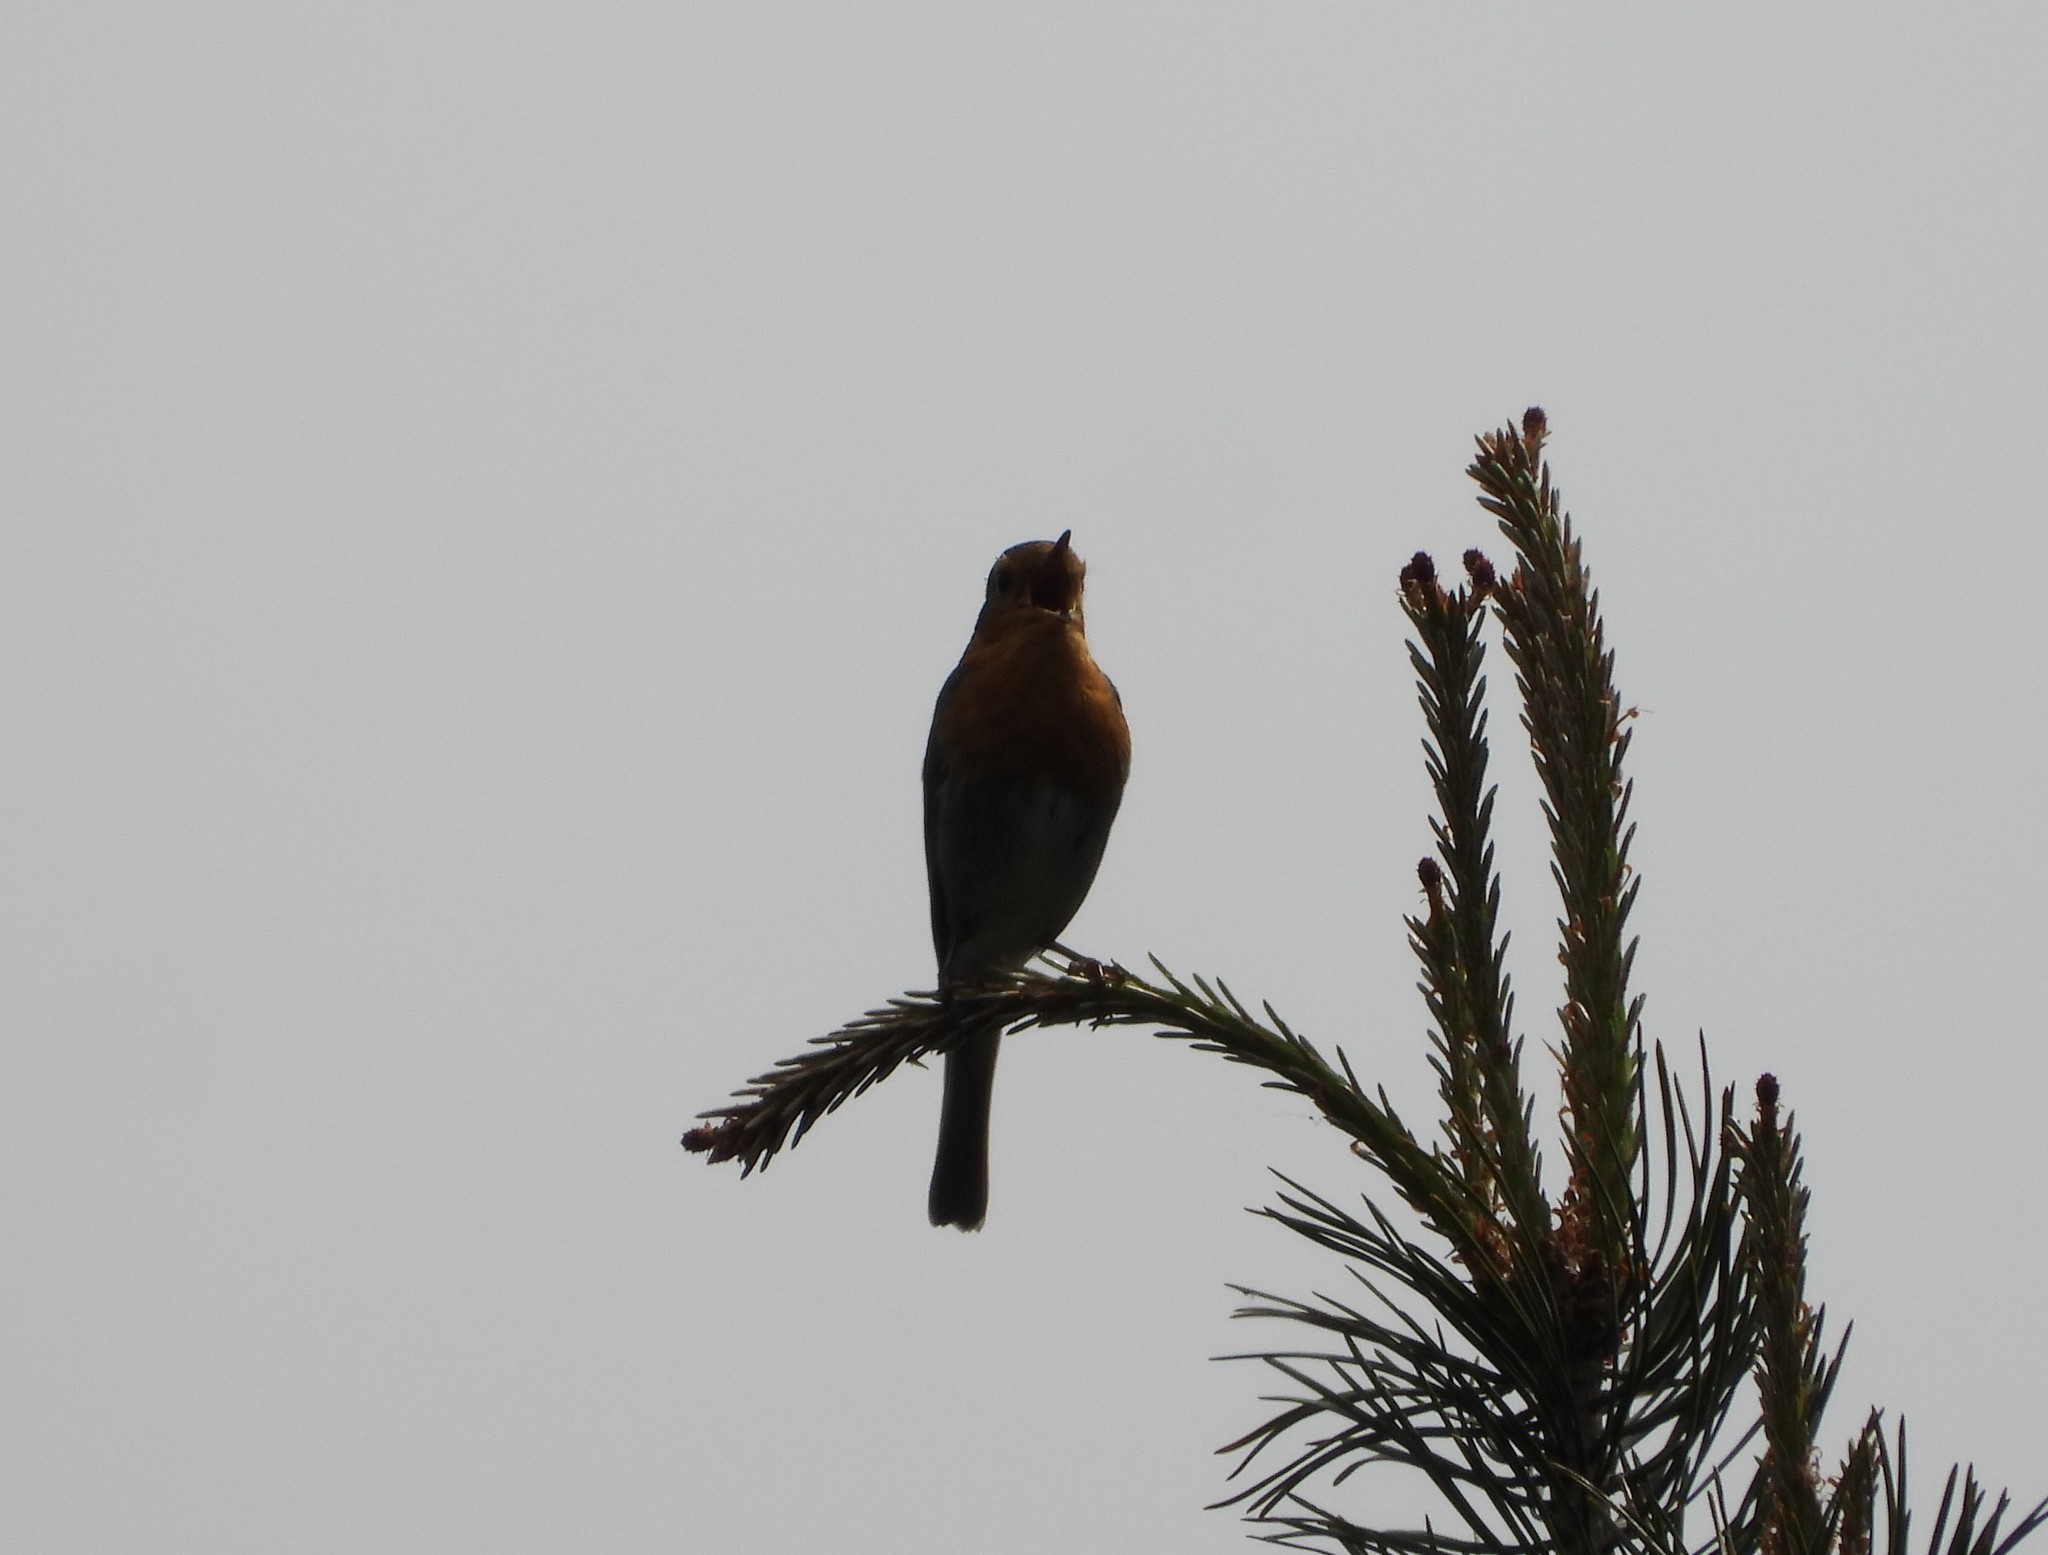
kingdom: Animalia
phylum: Chordata
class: Aves
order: Passeriformes
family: Muscicapidae
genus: Erithacus
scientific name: Erithacus rubecula
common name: European robin
